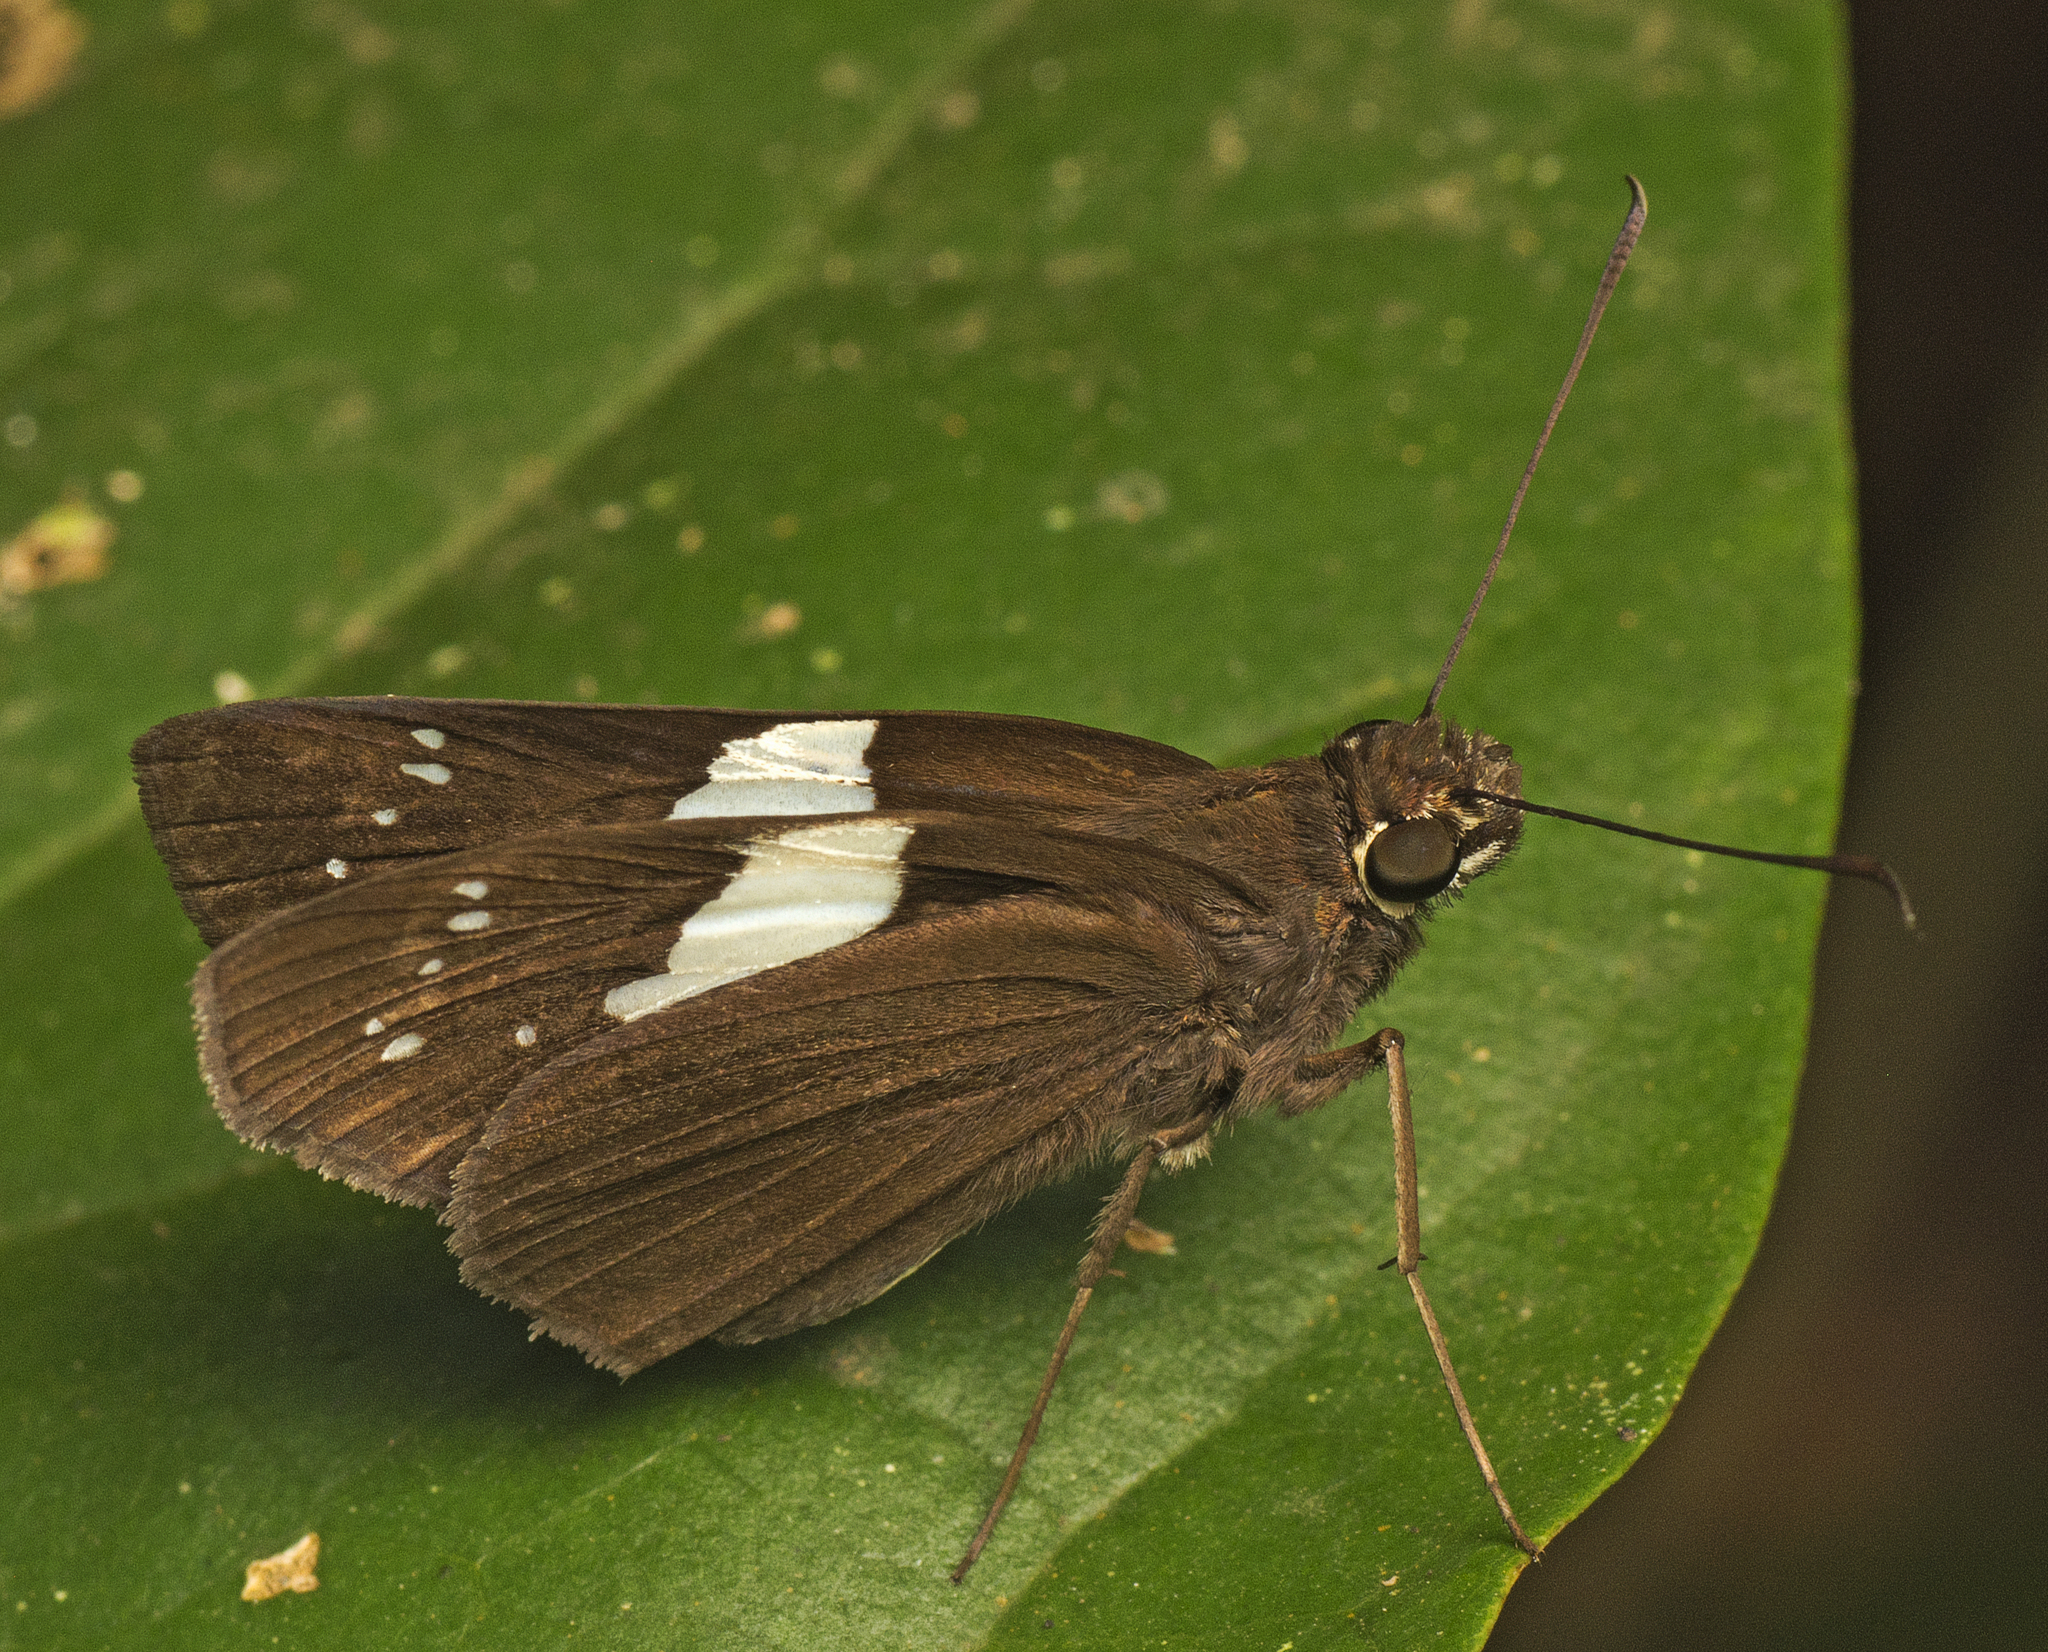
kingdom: Animalia
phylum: Arthropoda
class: Insecta
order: Lepidoptera
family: Hesperiidae
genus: Notocrypta
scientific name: Notocrypta waigensis
